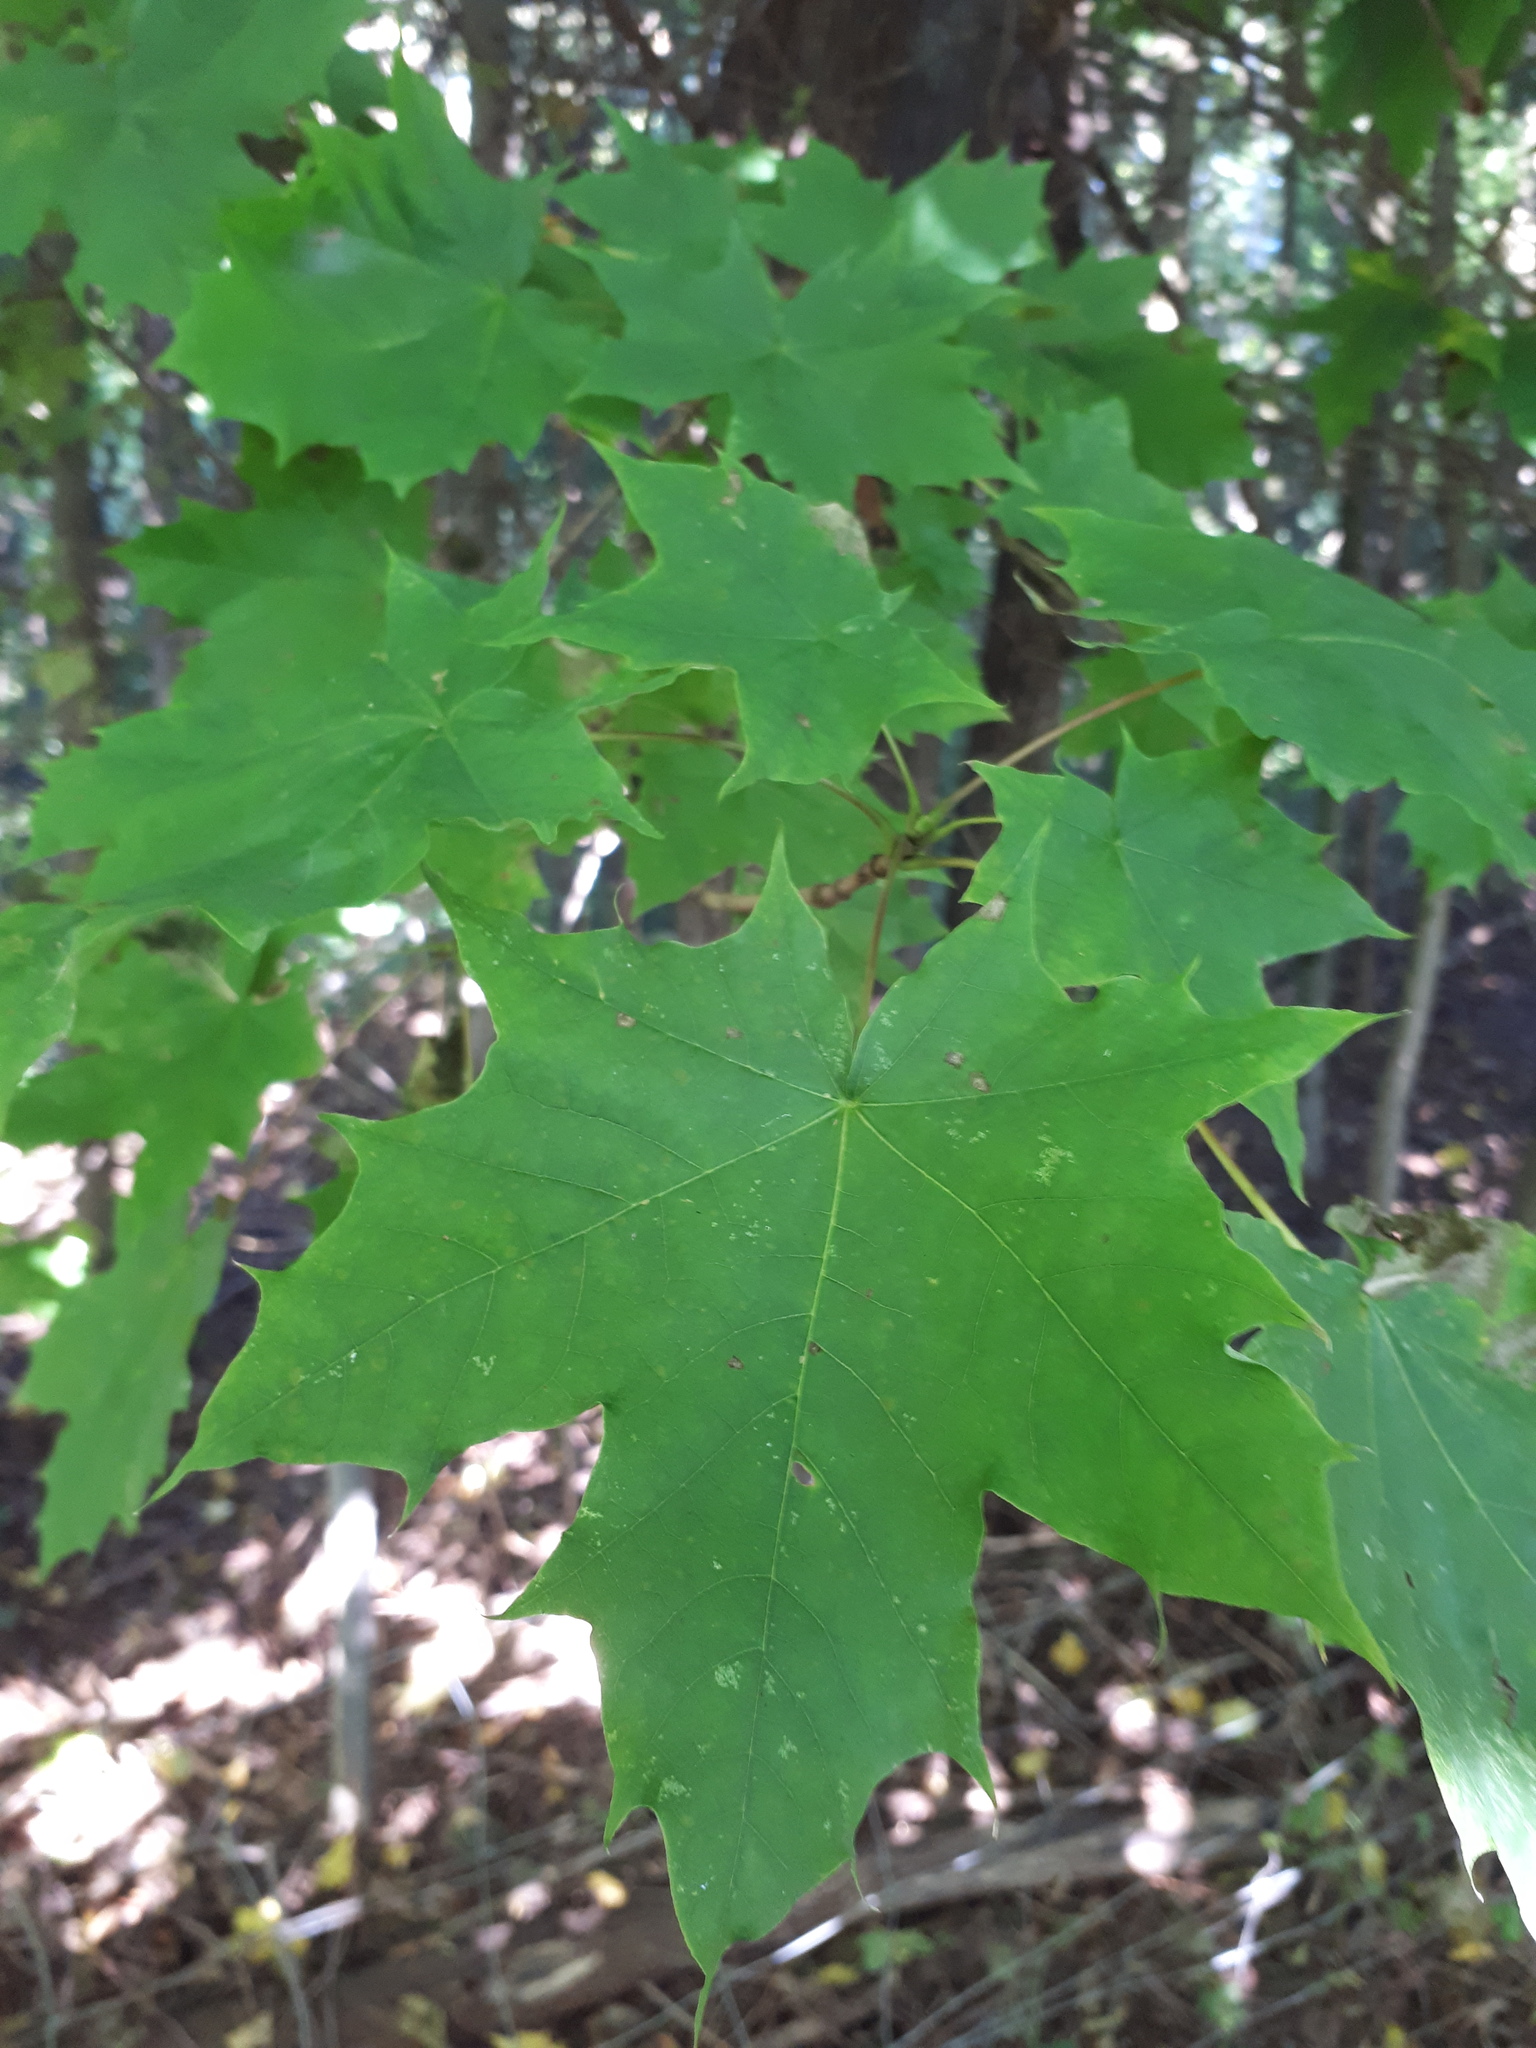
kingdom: Plantae
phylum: Tracheophyta
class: Magnoliopsida
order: Sapindales
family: Sapindaceae
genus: Acer
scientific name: Acer platanoides
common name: Norway maple
